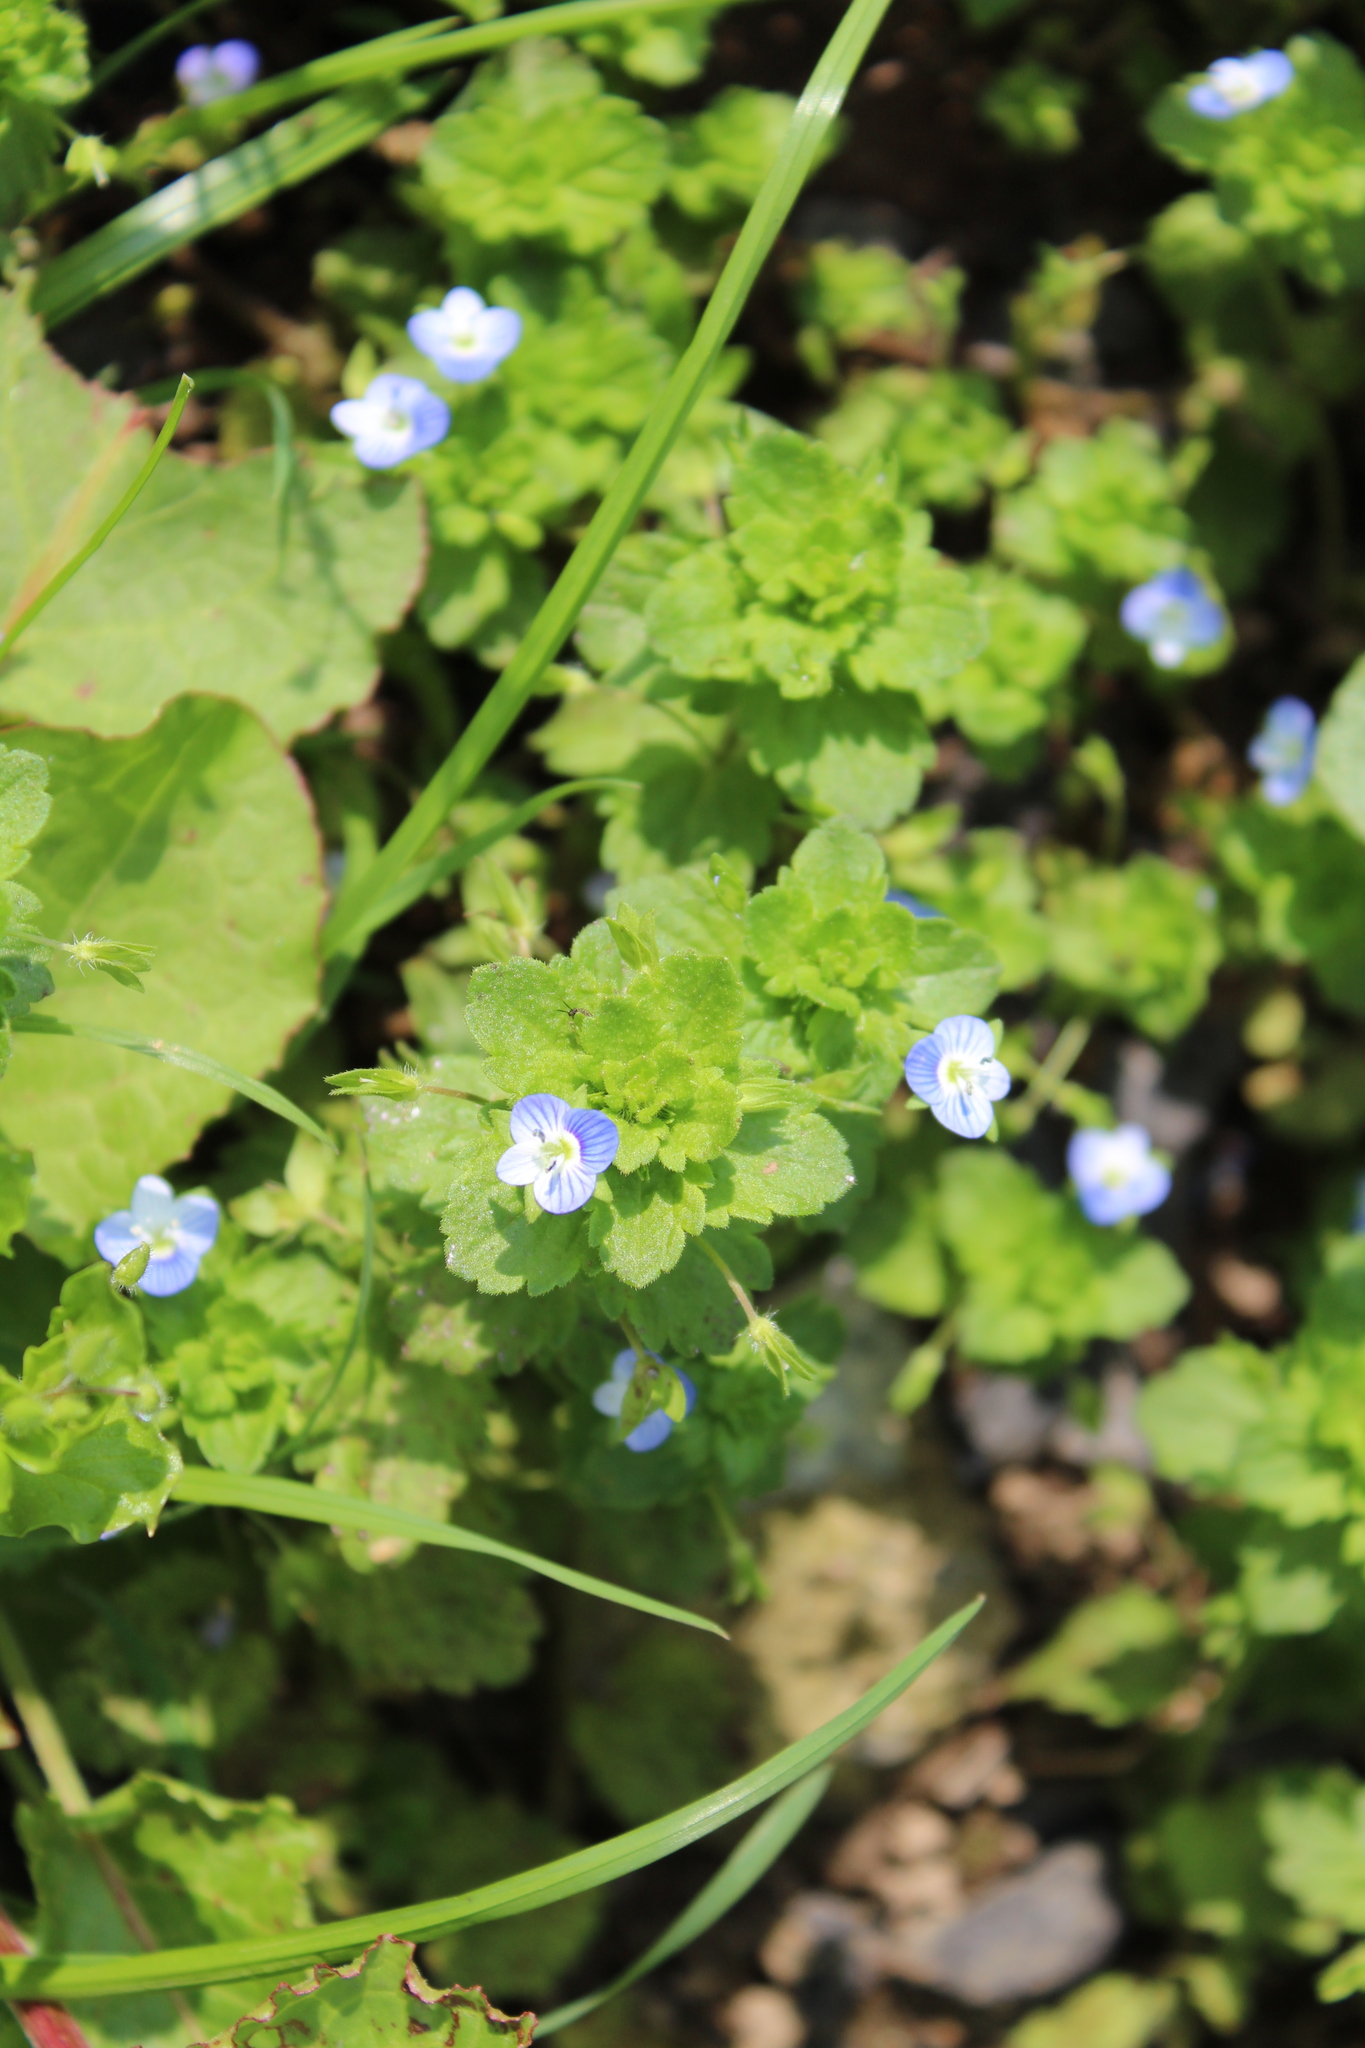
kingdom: Plantae
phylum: Tracheophyta
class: Magnoliopsida
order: Lamiales
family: Plantaginaceae
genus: Veronica
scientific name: Veronica persica
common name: Common field-speedwell
